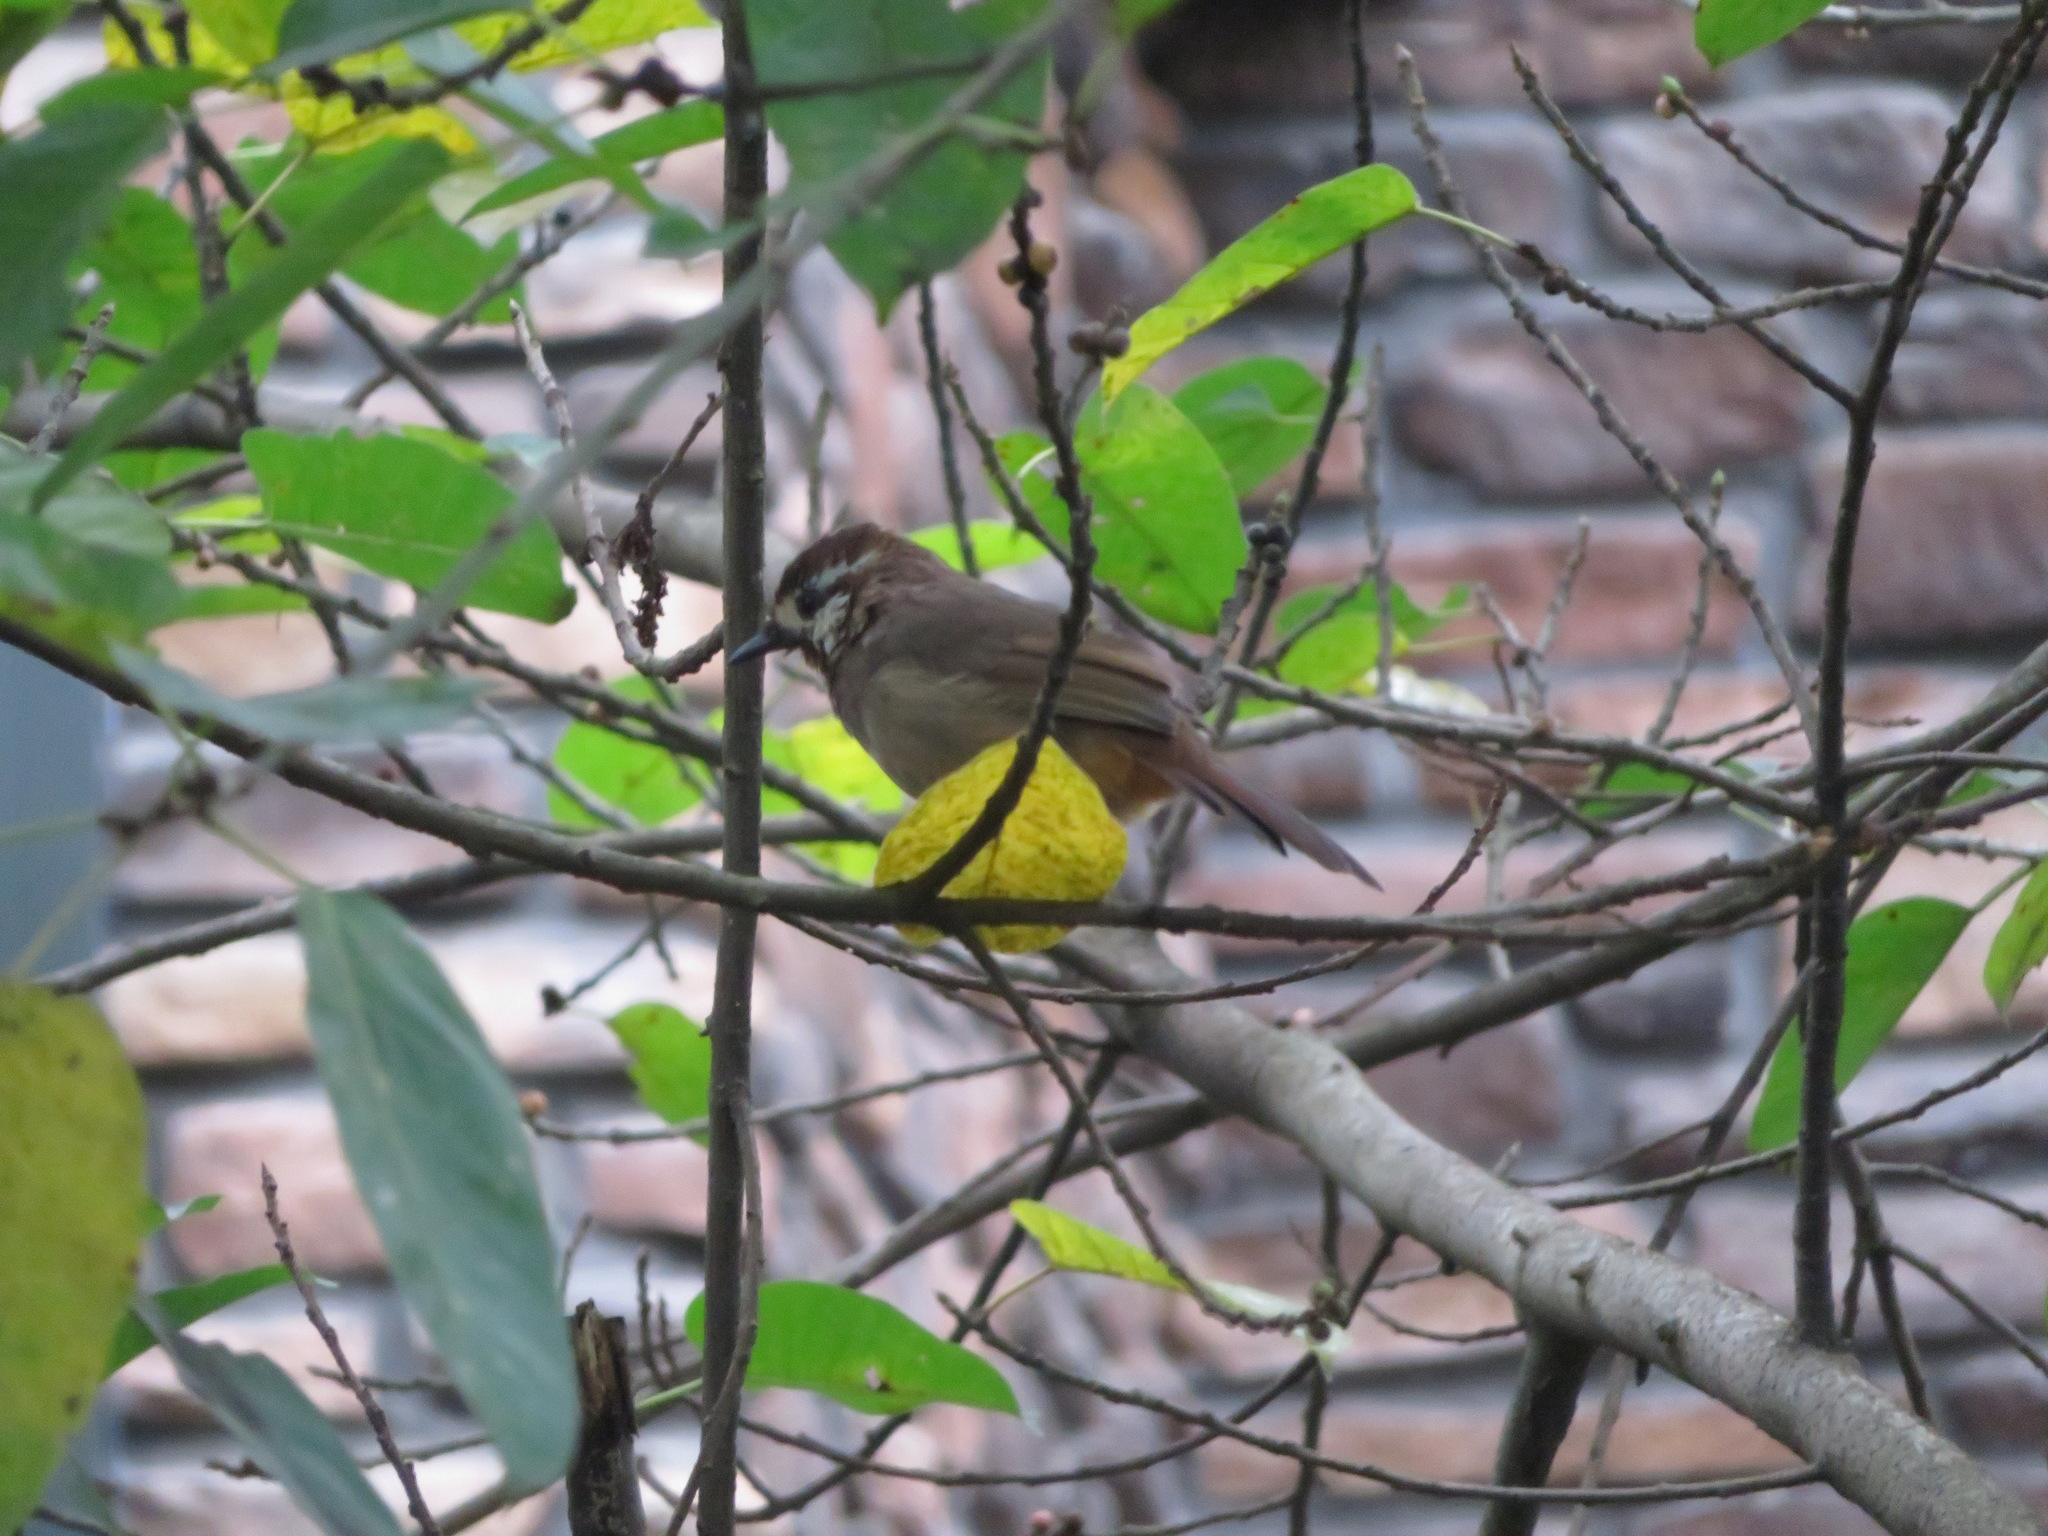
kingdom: Animalia
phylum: Chordata
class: Aves
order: Passeriformes
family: Leiothrichidae
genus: Pterorhinus
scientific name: Pterorhinus sannio
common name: White-browed laughingthrush
